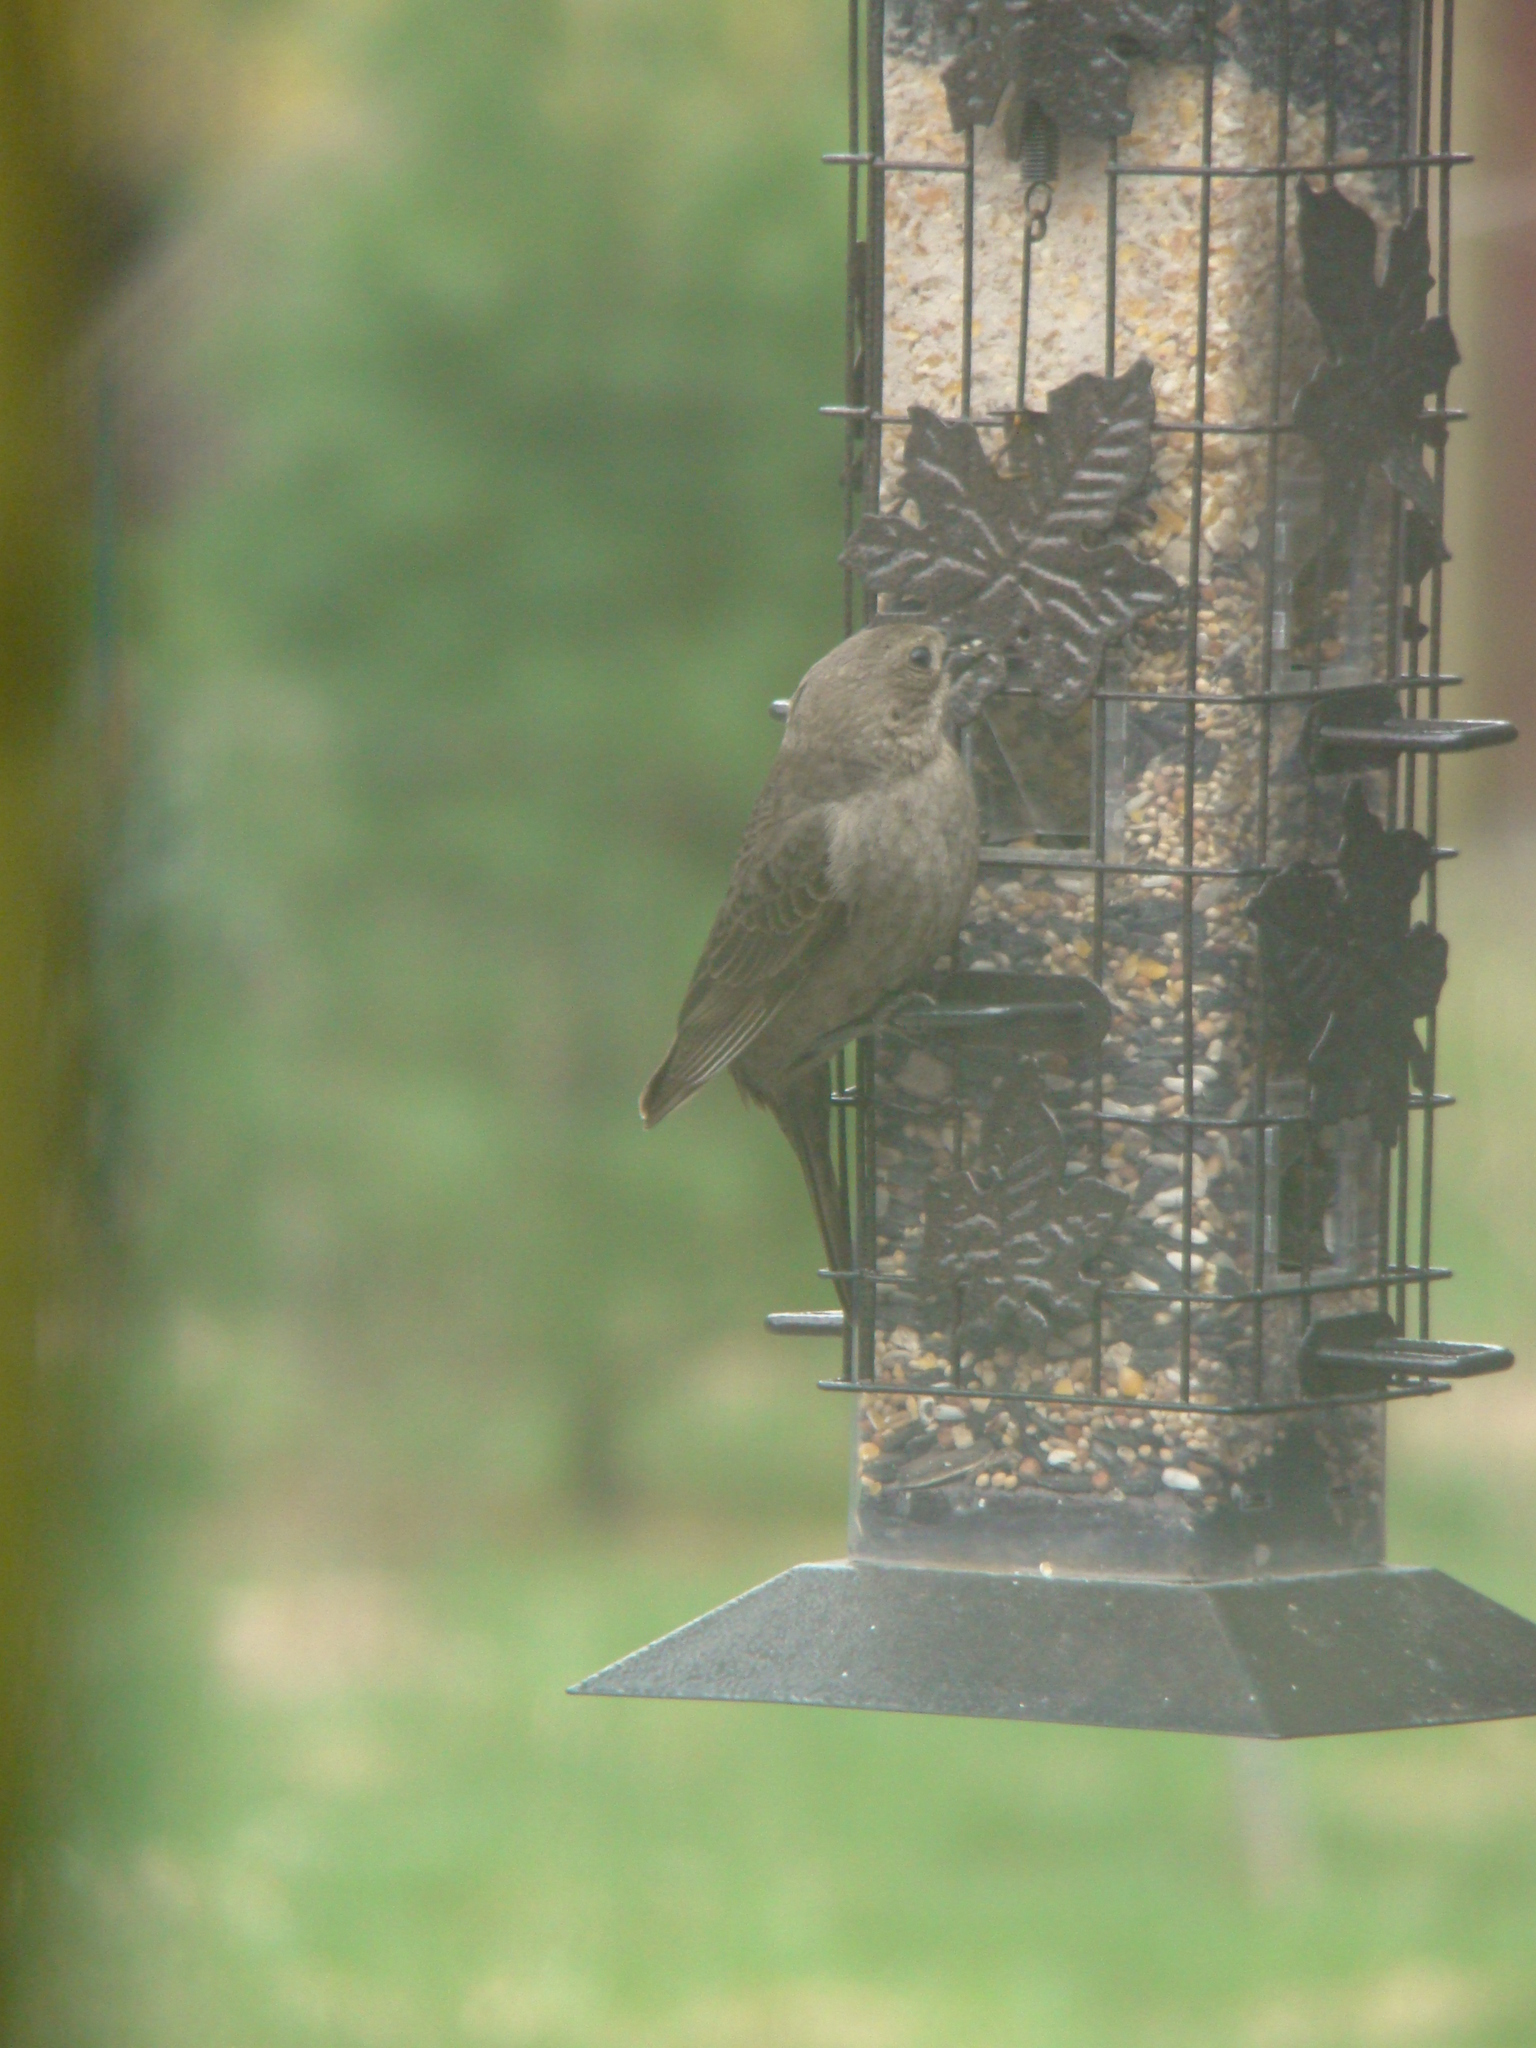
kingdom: Animalia
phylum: Chordata
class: Aves
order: Passeriformes
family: Icteridae
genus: Molothrus
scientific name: Molothrus ater
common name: Brown-headed cowbird
